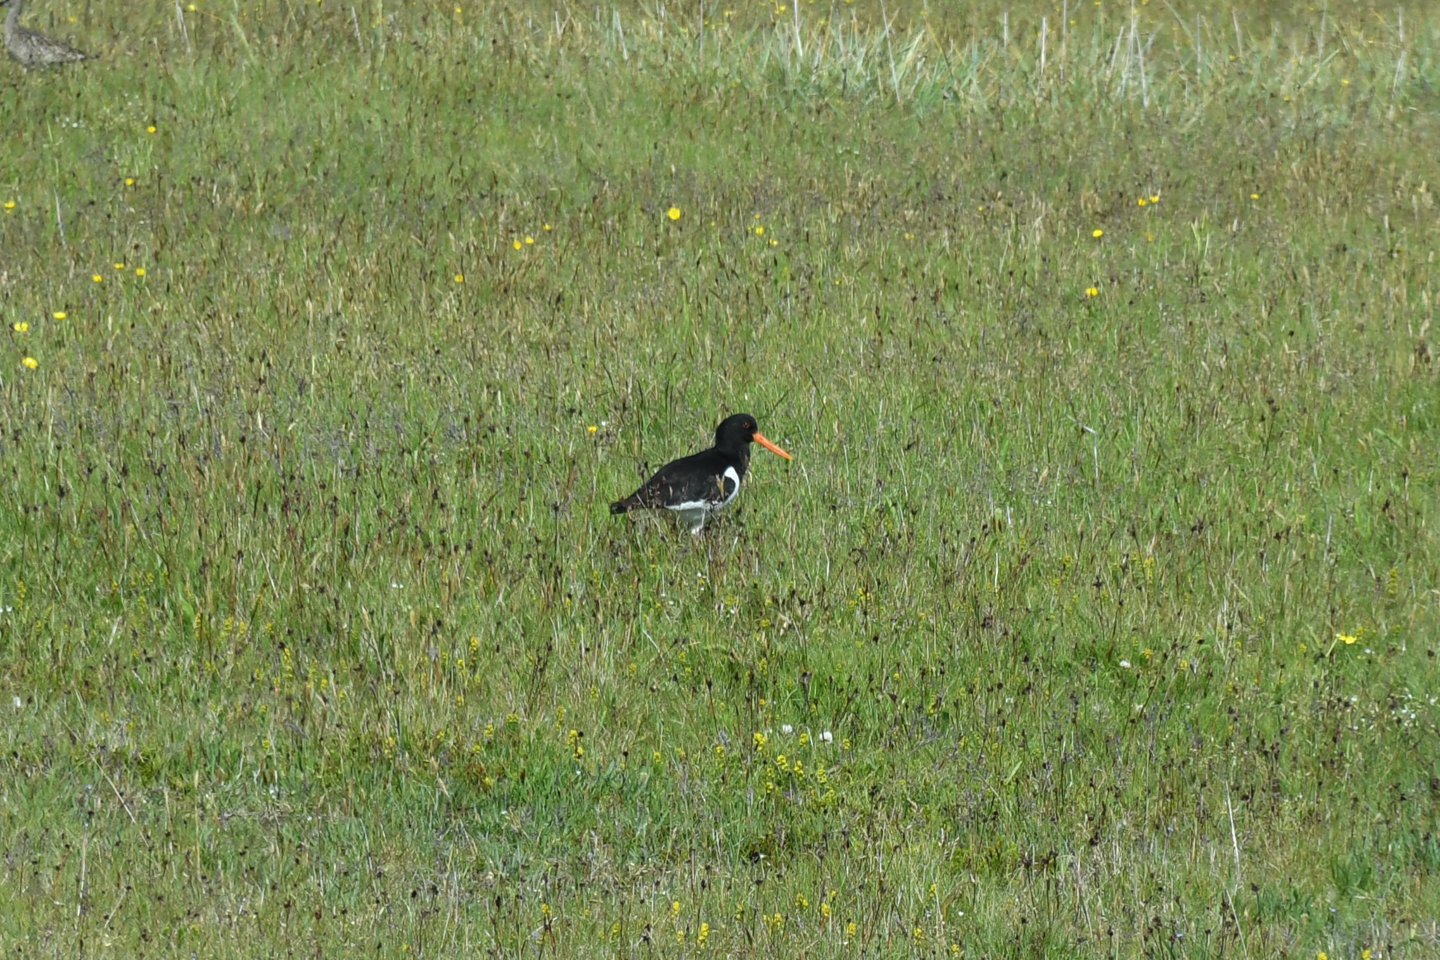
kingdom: Animalia
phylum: Chordata
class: Aves
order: Charadriiformes
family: Haematopodidae
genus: Haematopus
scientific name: Haematopus ostralegus
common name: Eurasian oystercatcher
